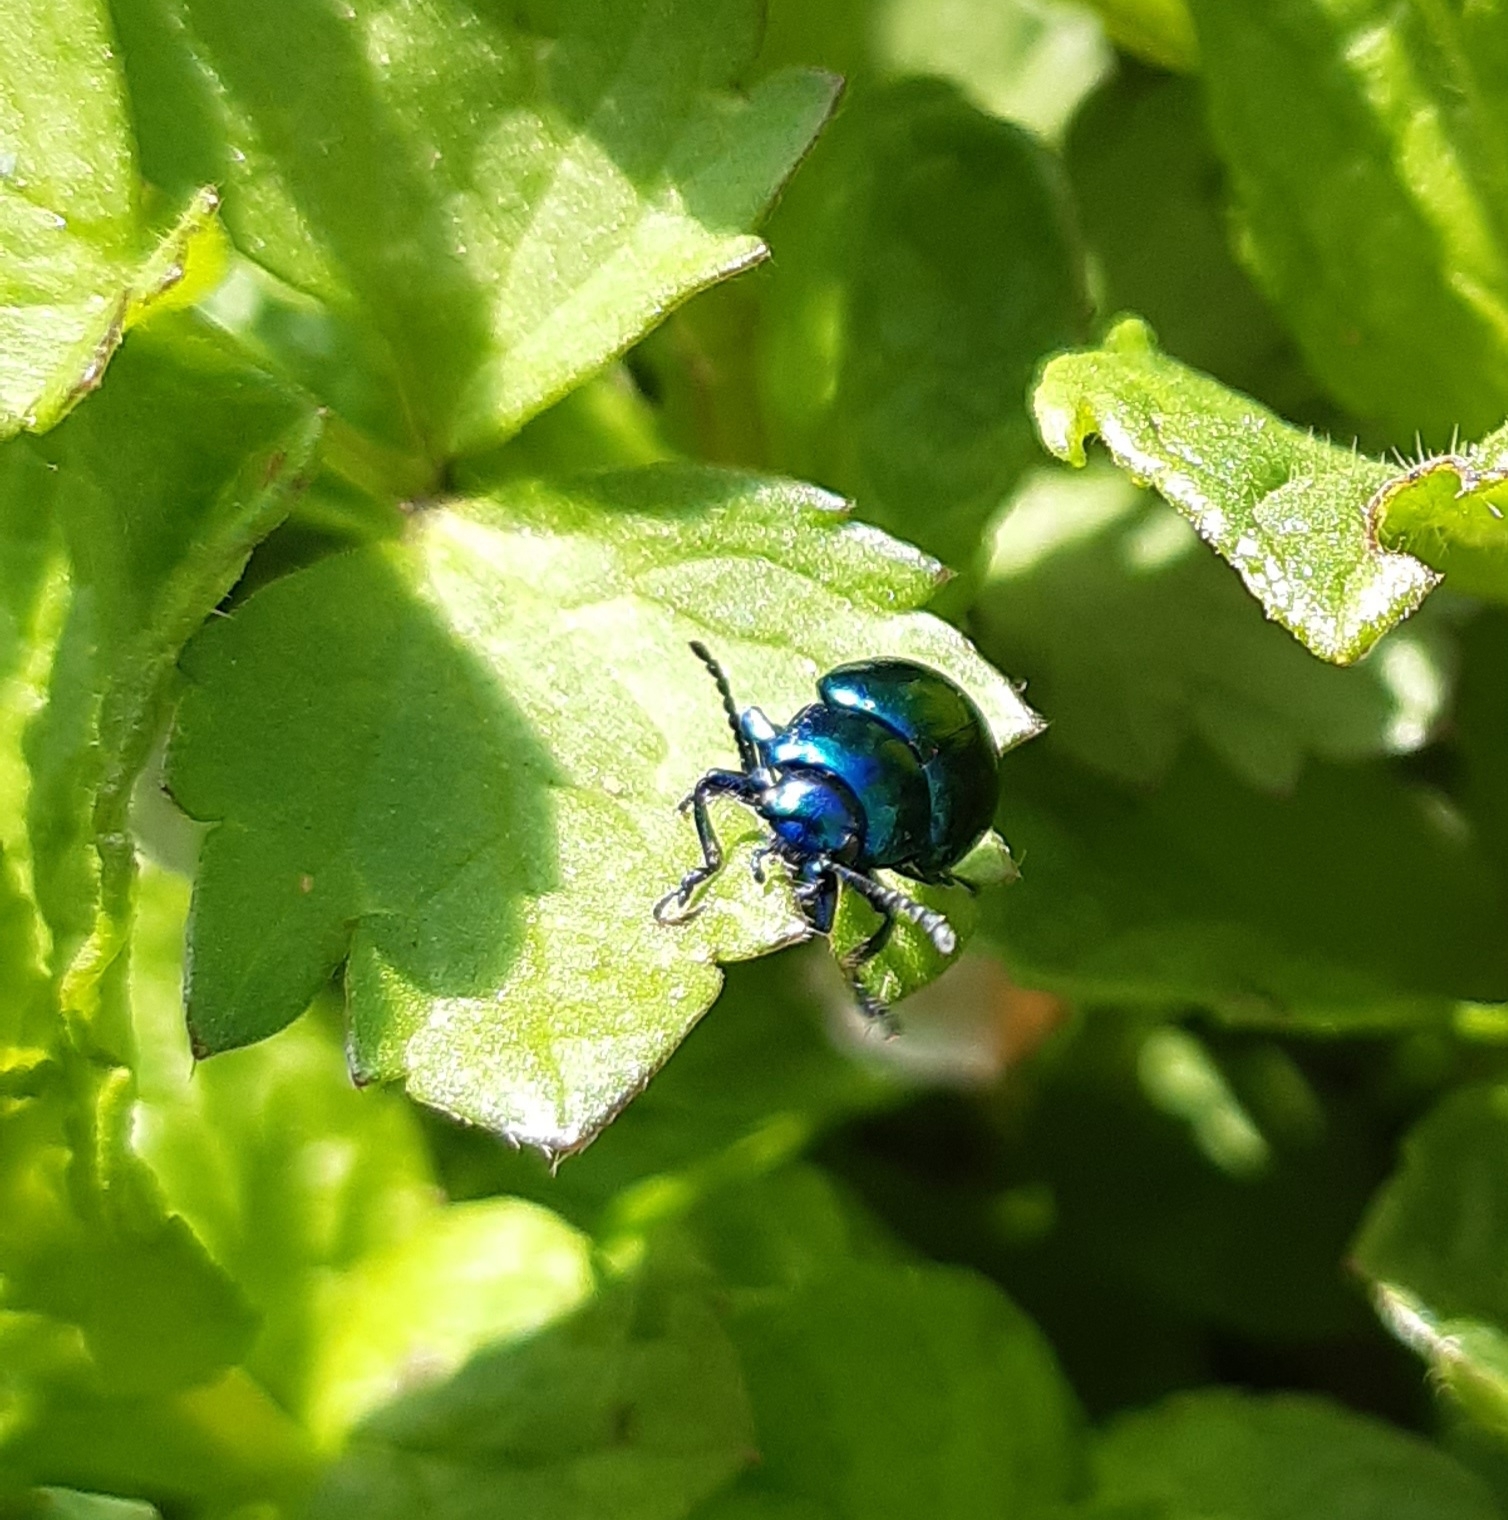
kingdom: Animalia
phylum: Arthropoda
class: Insecta
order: Coleoptera
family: Chrysomelidae
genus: Chrysolina
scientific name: Chrysolina coerulans
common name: Blue mint beetle
